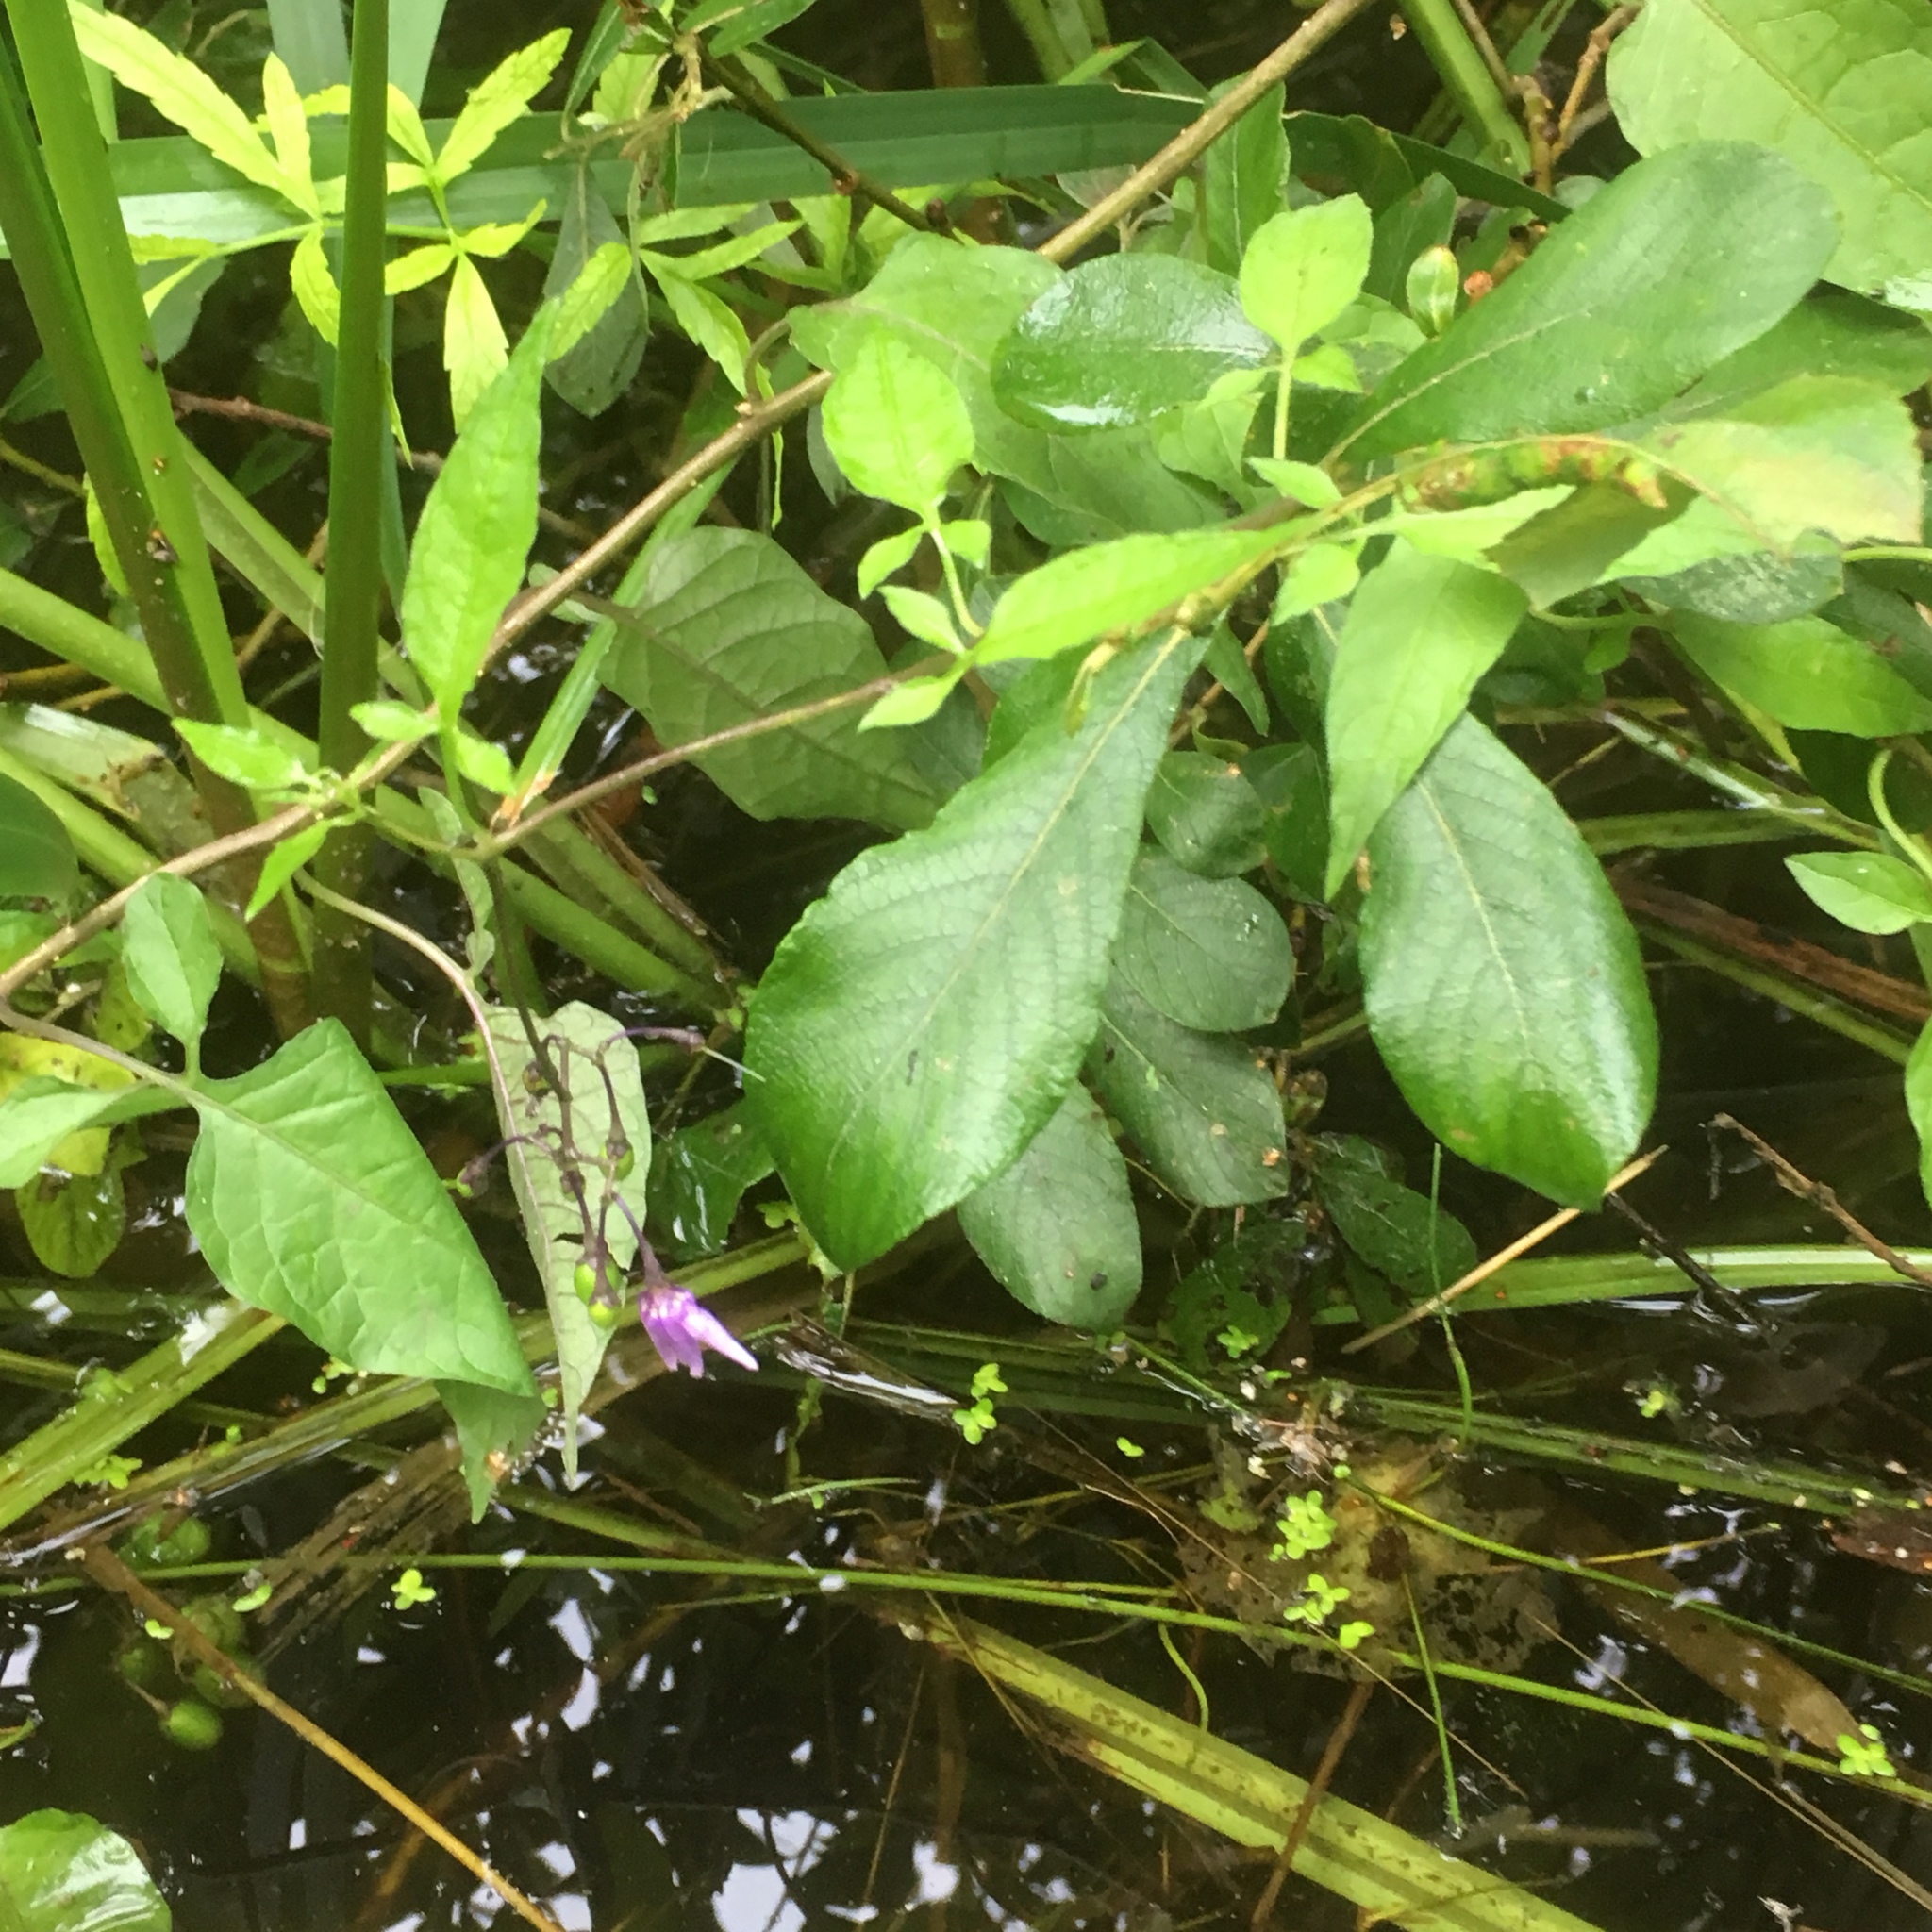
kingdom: Plantae
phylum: Tracheophyta
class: Magnoliopsida
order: Solanales
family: Solanaceae
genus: Solanum
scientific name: Solanum dulcamara
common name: Climbing nightshade
